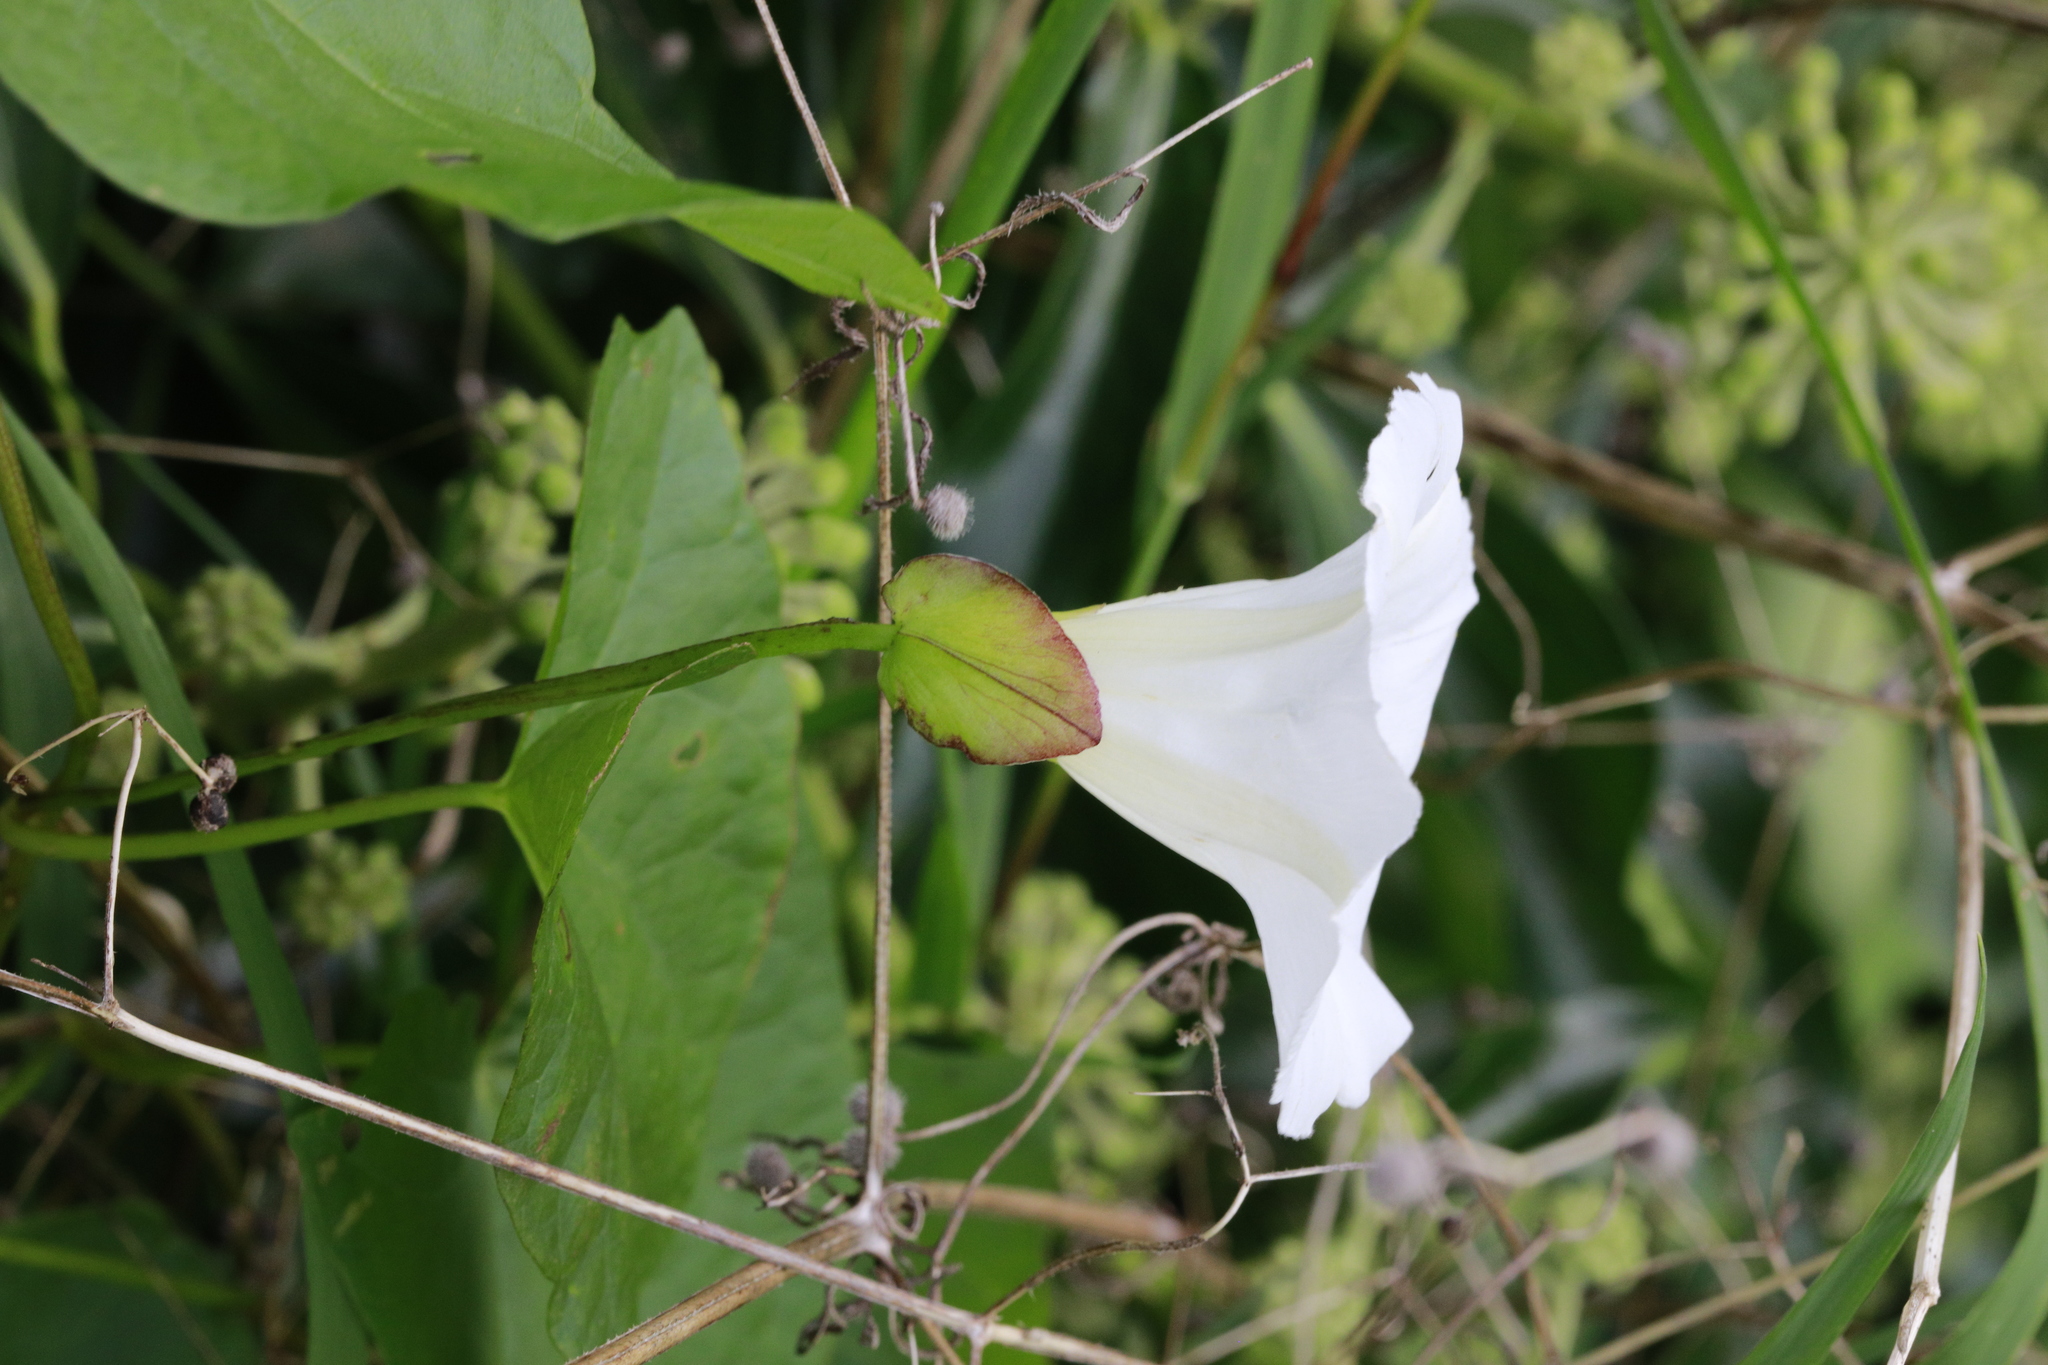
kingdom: Plantae
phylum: Tracheophyta
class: Magnoliopsida
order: Solanales
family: Convolvulaceae
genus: Calystegia
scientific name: Calystegia silvatica
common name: Large bindweed
